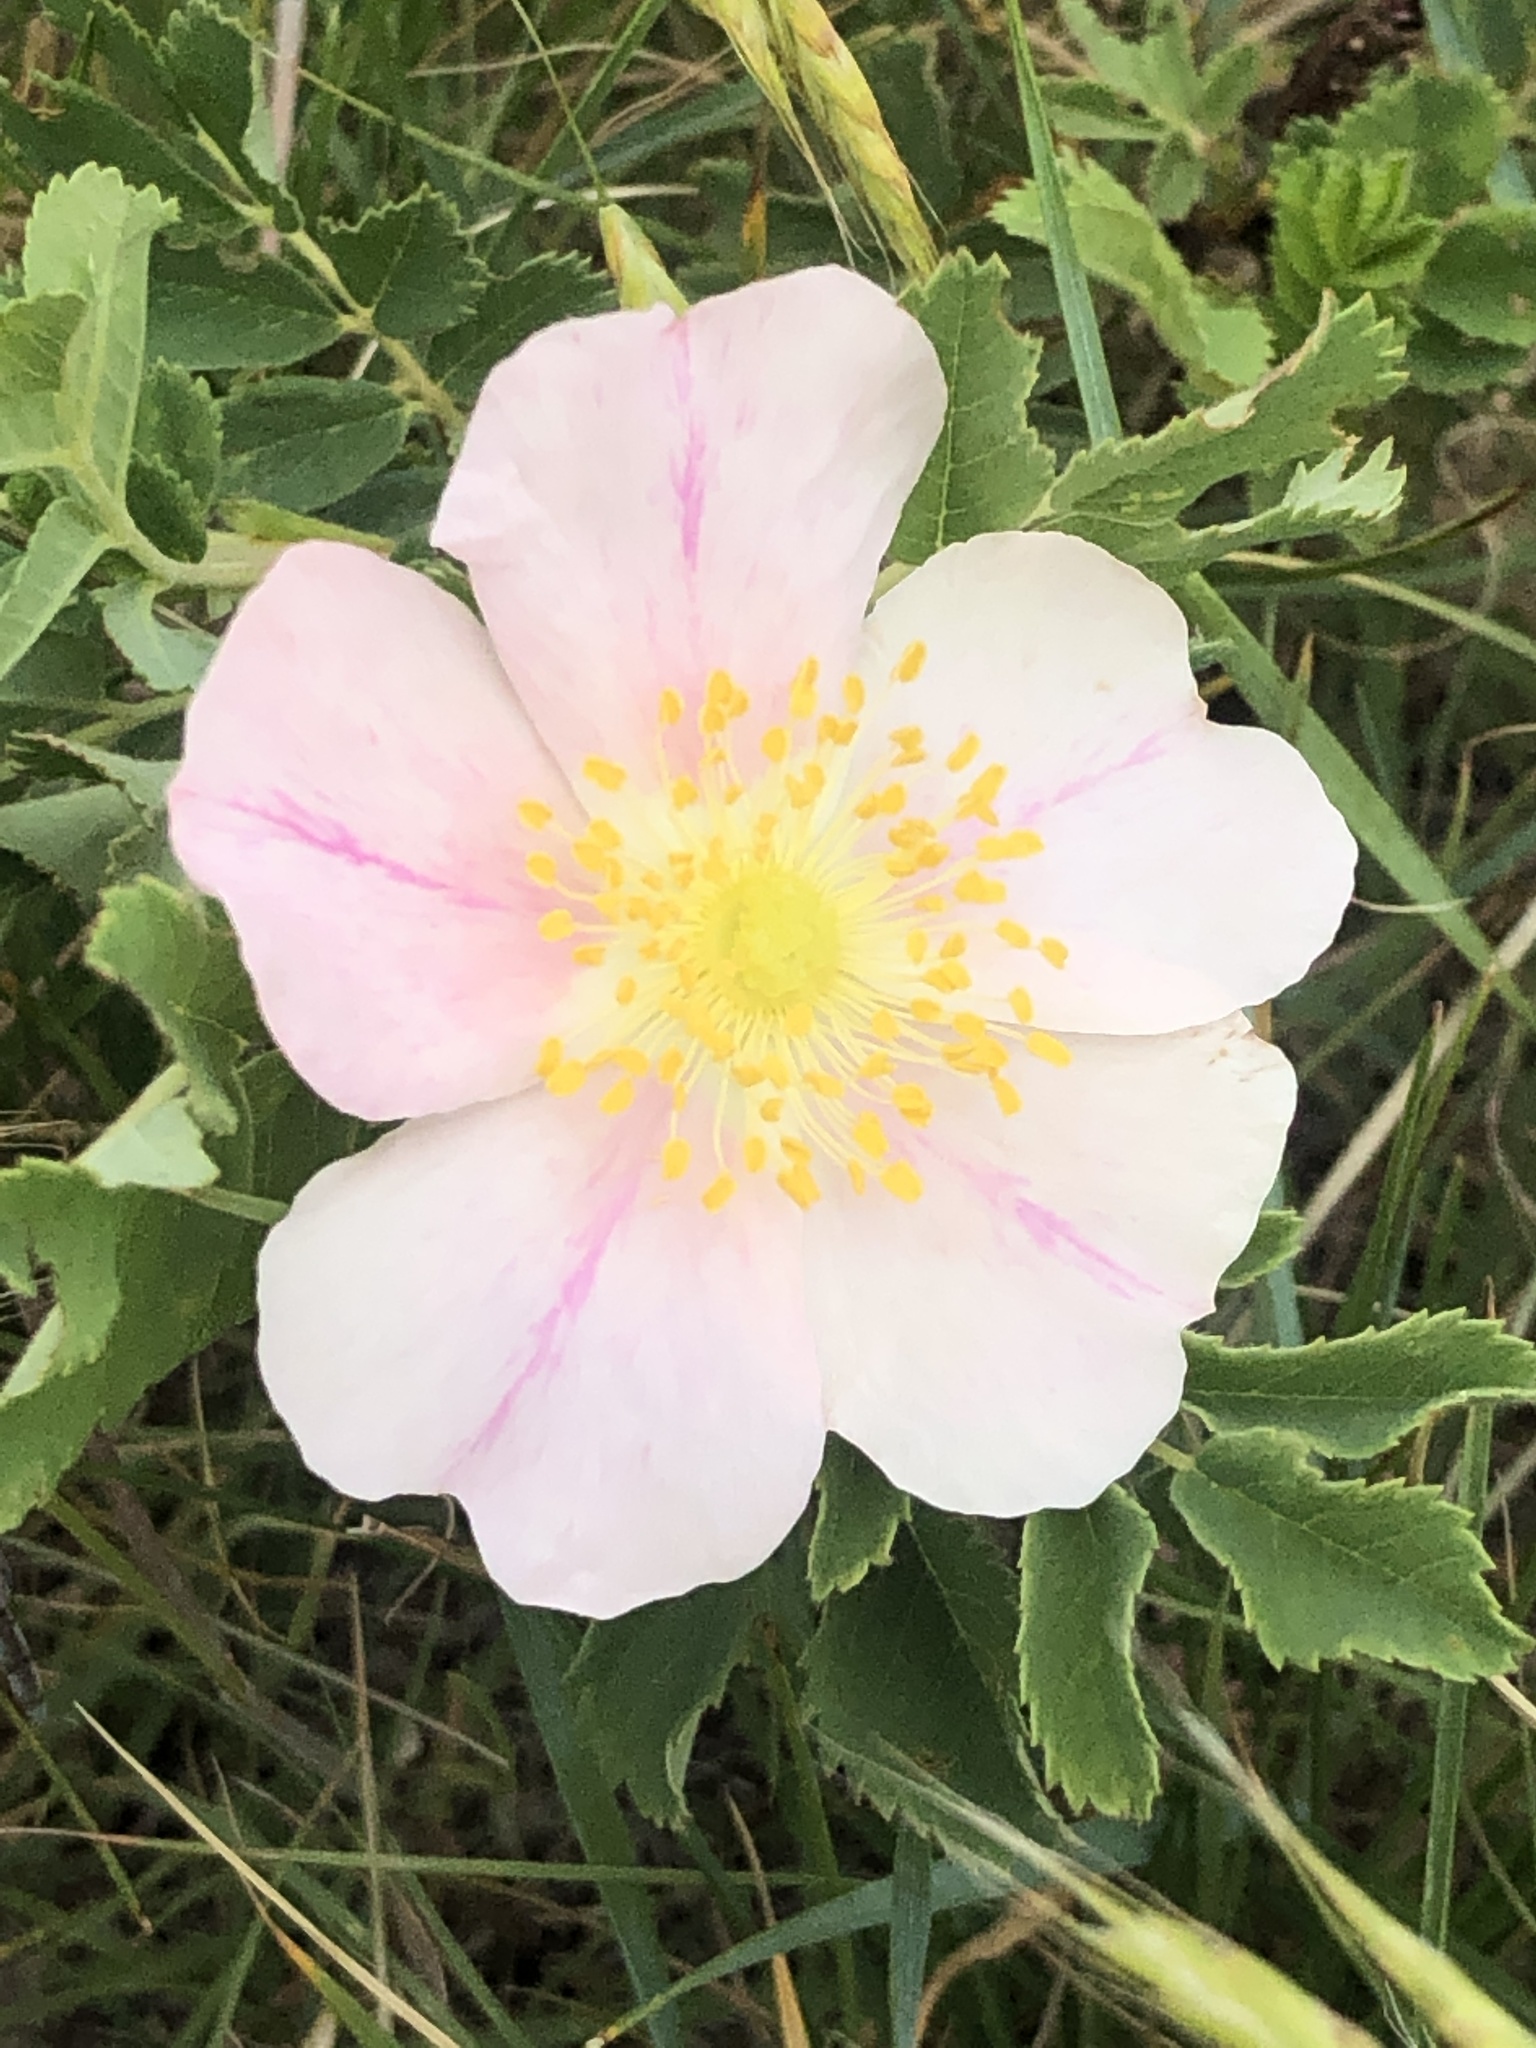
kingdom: Plantae
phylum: Tracheophyta
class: Magnoliopsida
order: Rosales
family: Rosaceae
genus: Rosa
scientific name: Rosa arkansana
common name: Prairie rose
